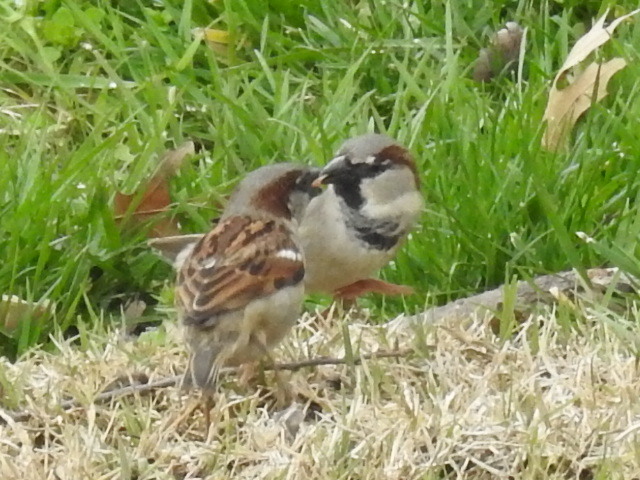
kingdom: Animalia
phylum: Chordata
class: Aves
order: Passeriformes
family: Passeridae
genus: Passer
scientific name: Passer domesticus
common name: House sparrow
